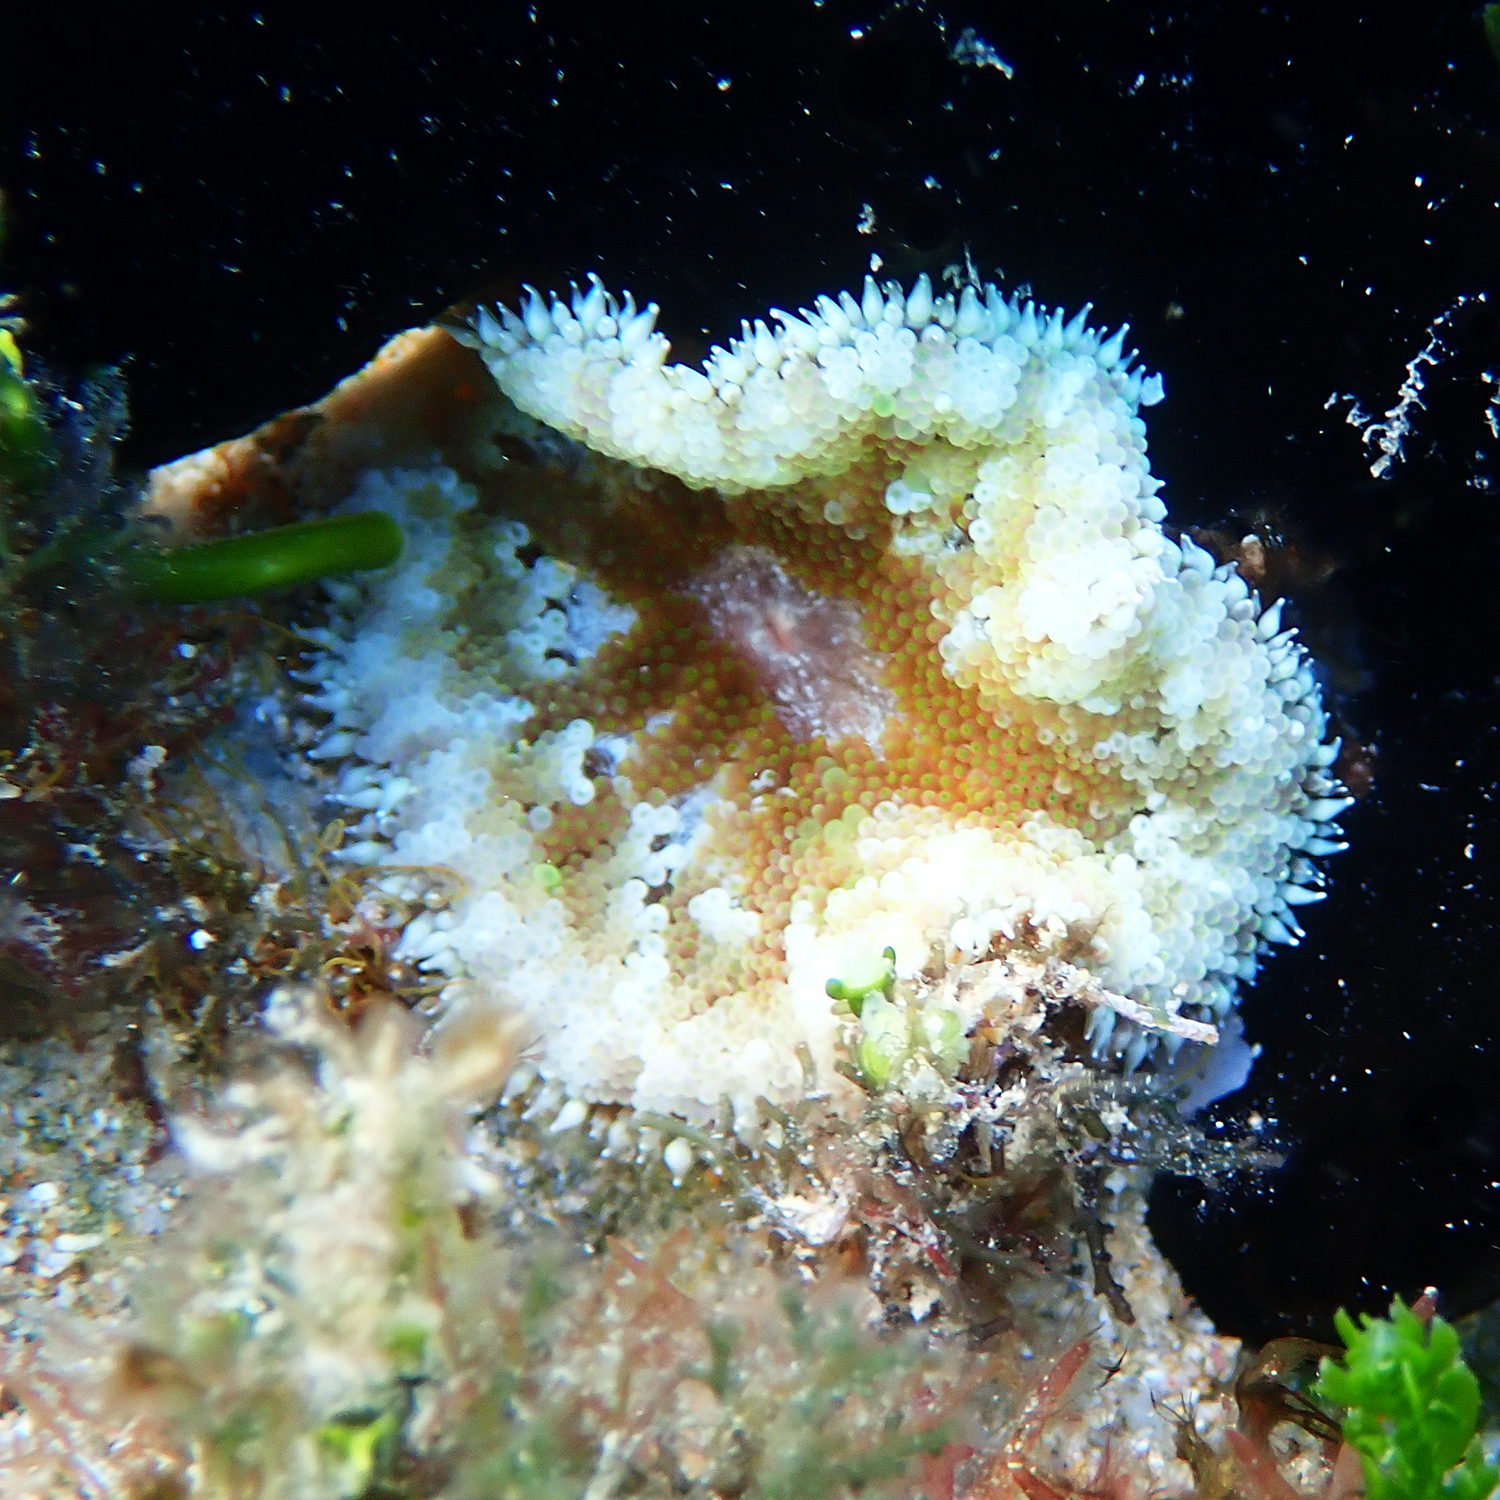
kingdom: Animalia
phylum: Cnidaria
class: Anthozoa
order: Actiniaria
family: Stichodactylidae
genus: Stichodactyla
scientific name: Stichodactyla tapetum
